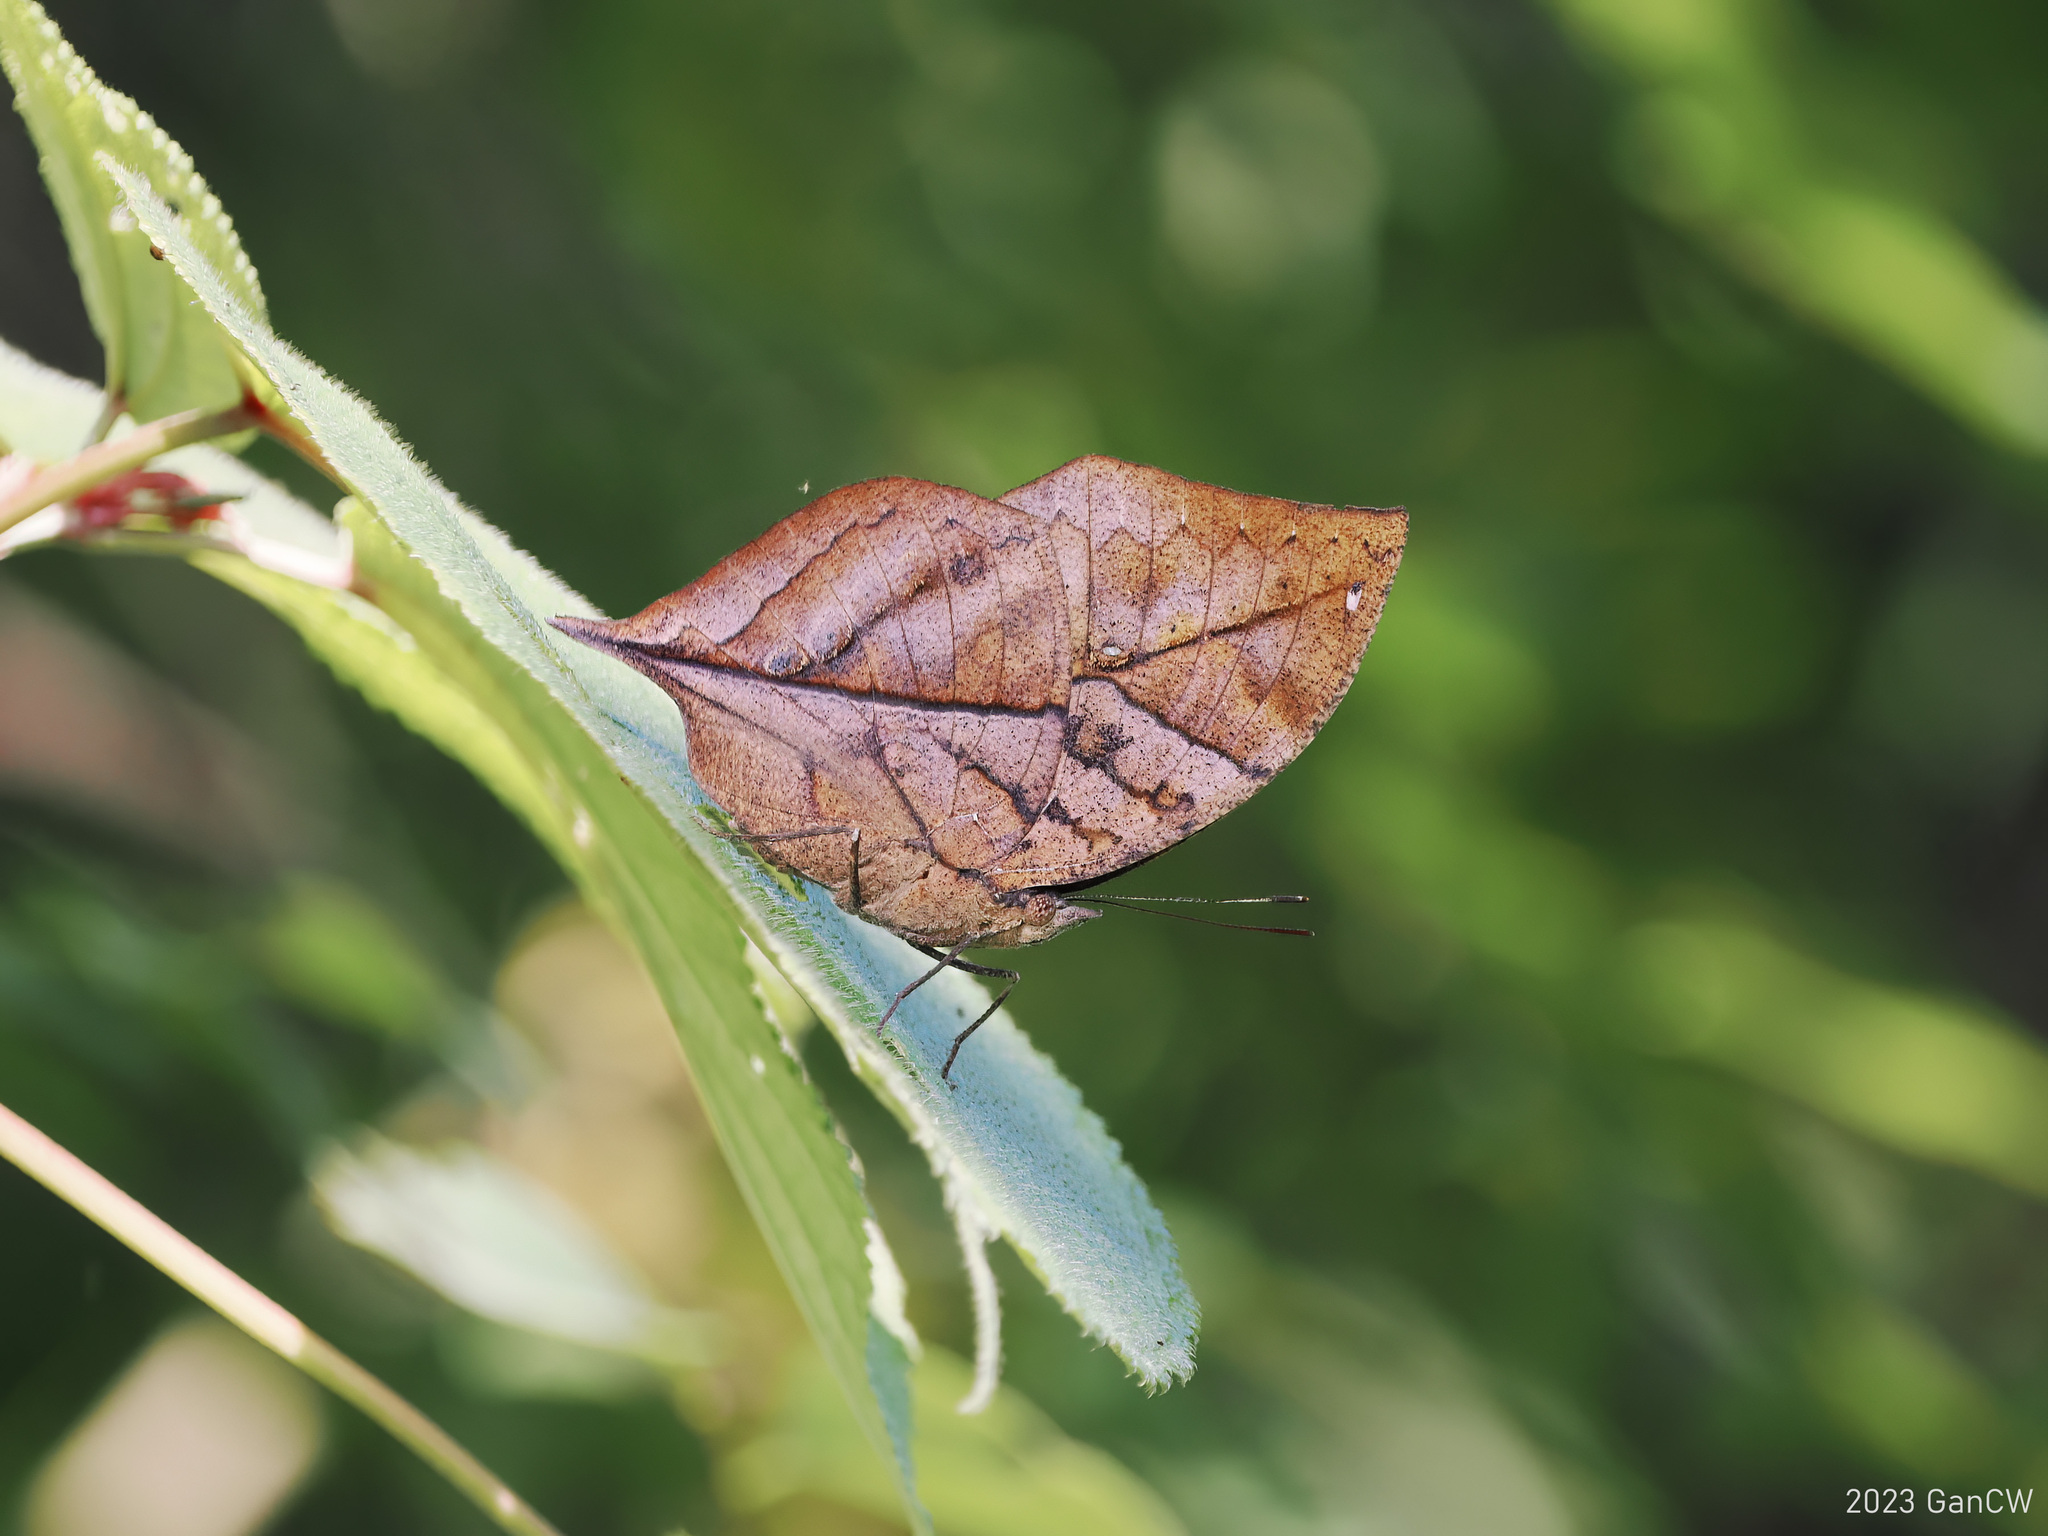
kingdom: Animalia
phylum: Arthropoda
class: Insecta
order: Lepidoptera
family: Nymphalidae
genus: Kallima
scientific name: Kallima inachus
